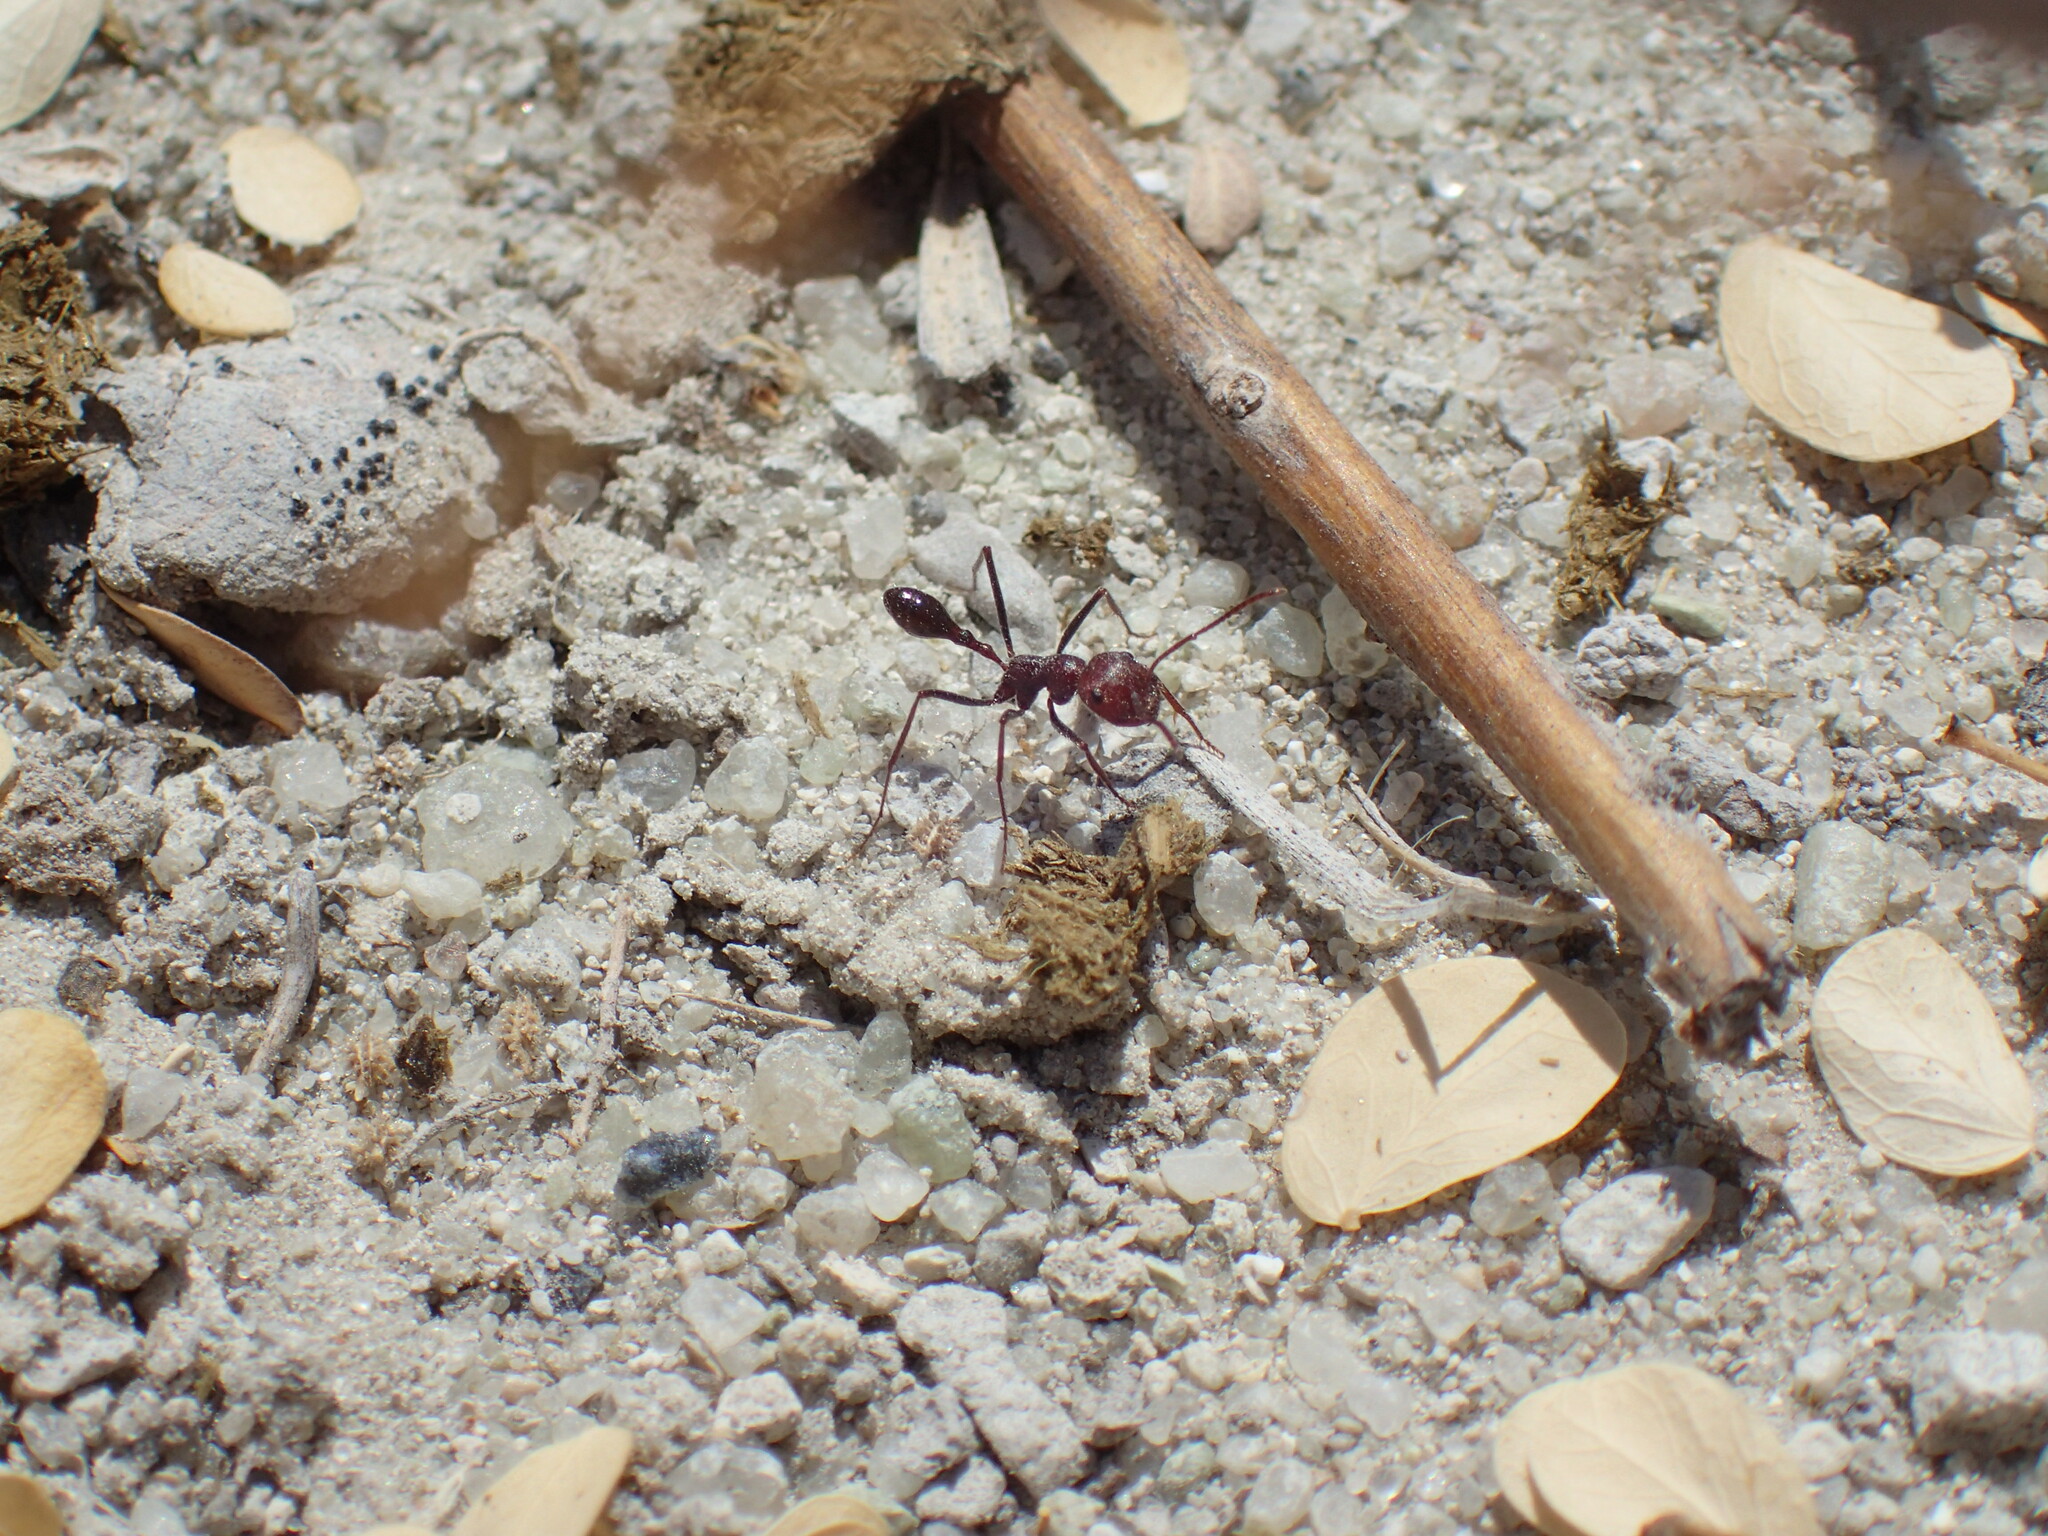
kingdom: Animalia
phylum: Arthropoda
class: Insecta
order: Hymenoptera
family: Formicidae
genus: Ocymyrmex
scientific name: Ocymyrmex velox
